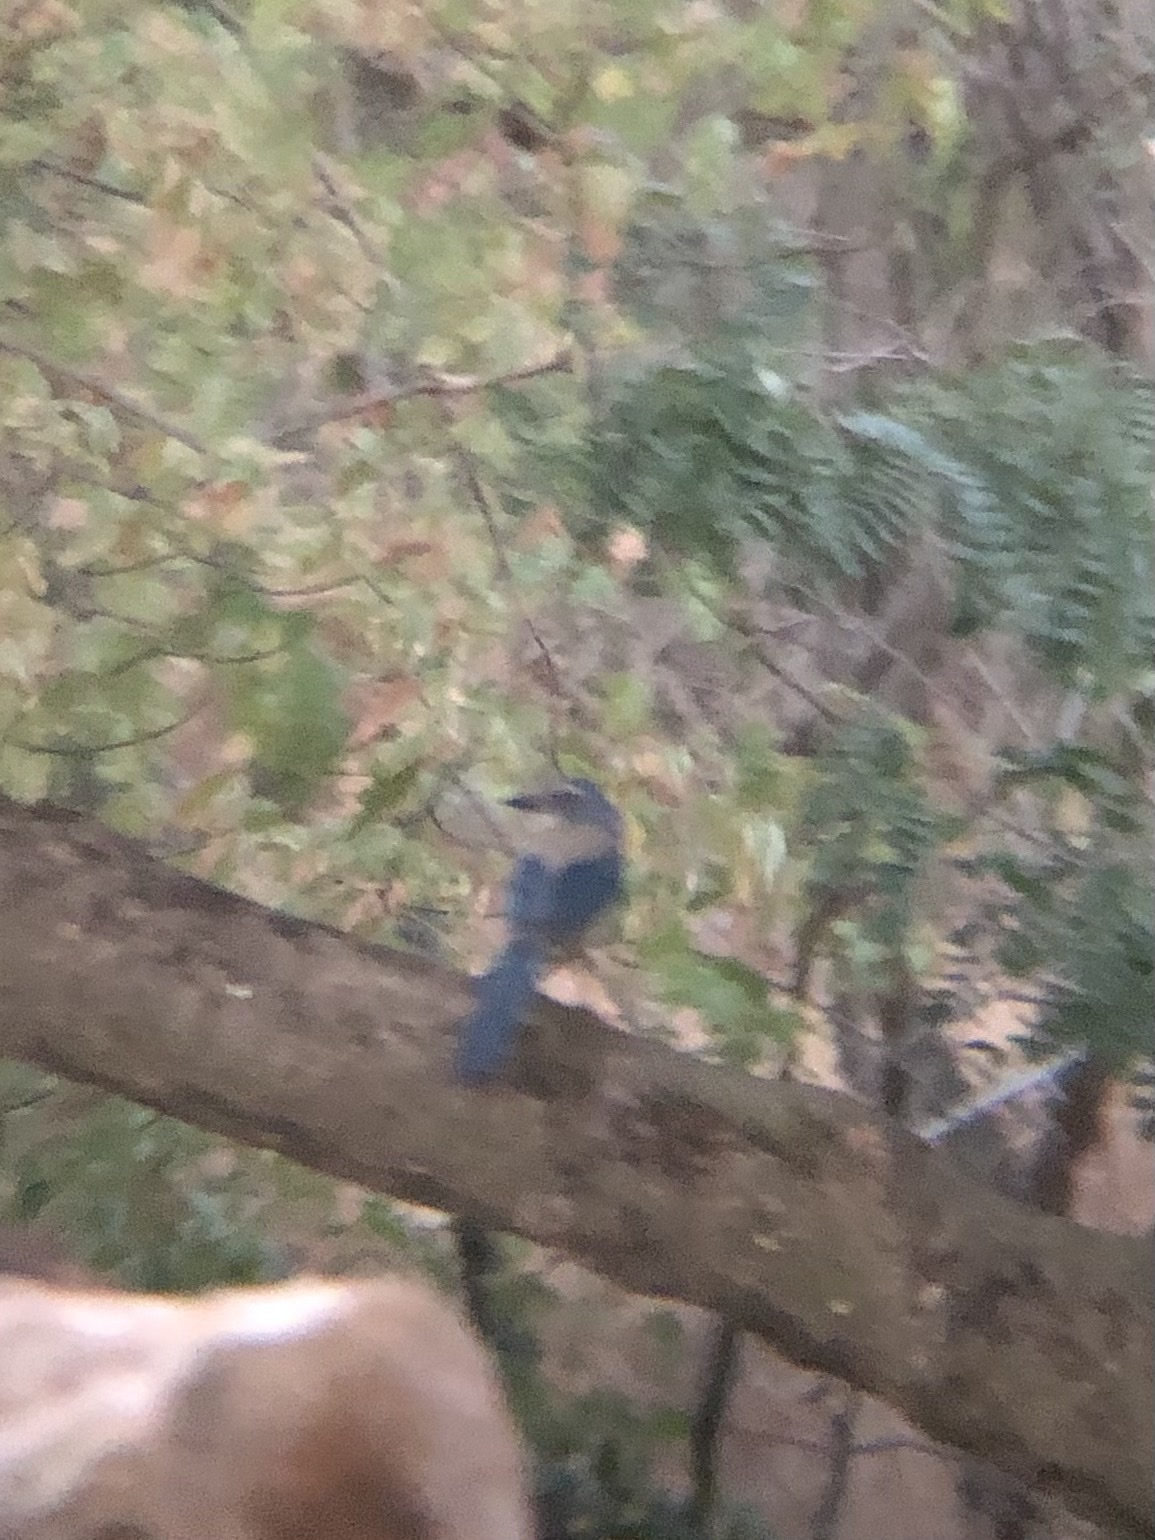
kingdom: Animalia
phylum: Chordata
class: Aves
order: Passeriformes
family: Corvidae
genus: Aphelocoma
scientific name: Aphelocoma californica
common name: California scrub-jay
